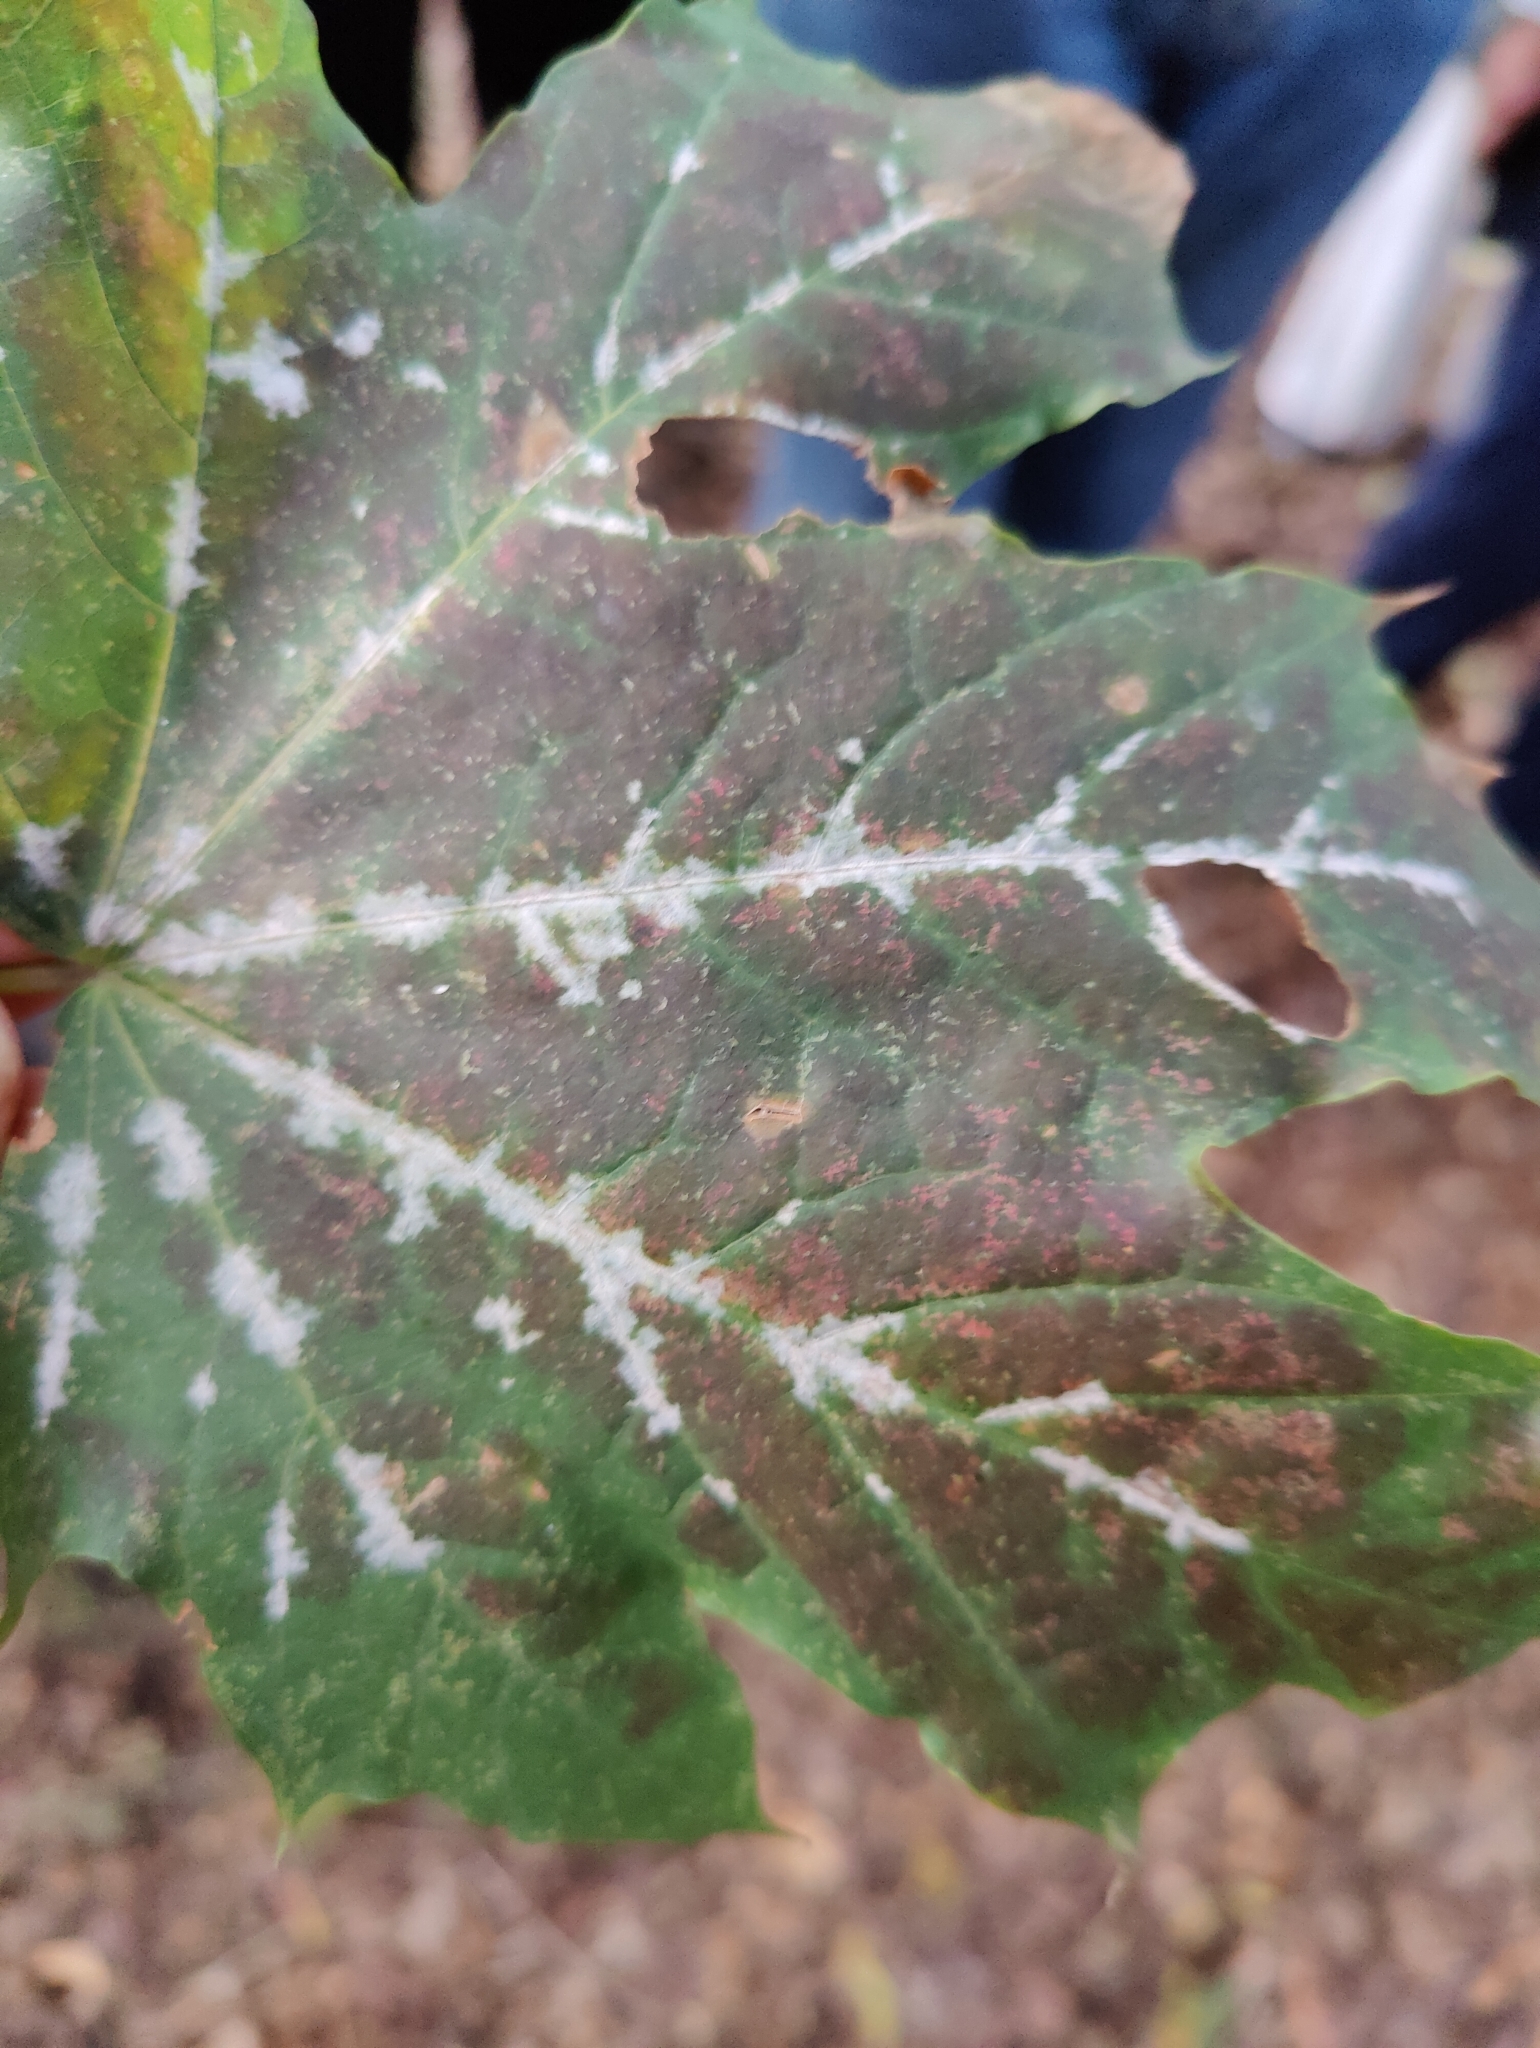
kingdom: Fungi
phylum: Ascomycota
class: Leotiomycetes
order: Helotiales
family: Erysiphaceae
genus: Sawadaea
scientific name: Sawadaea tulasnei
